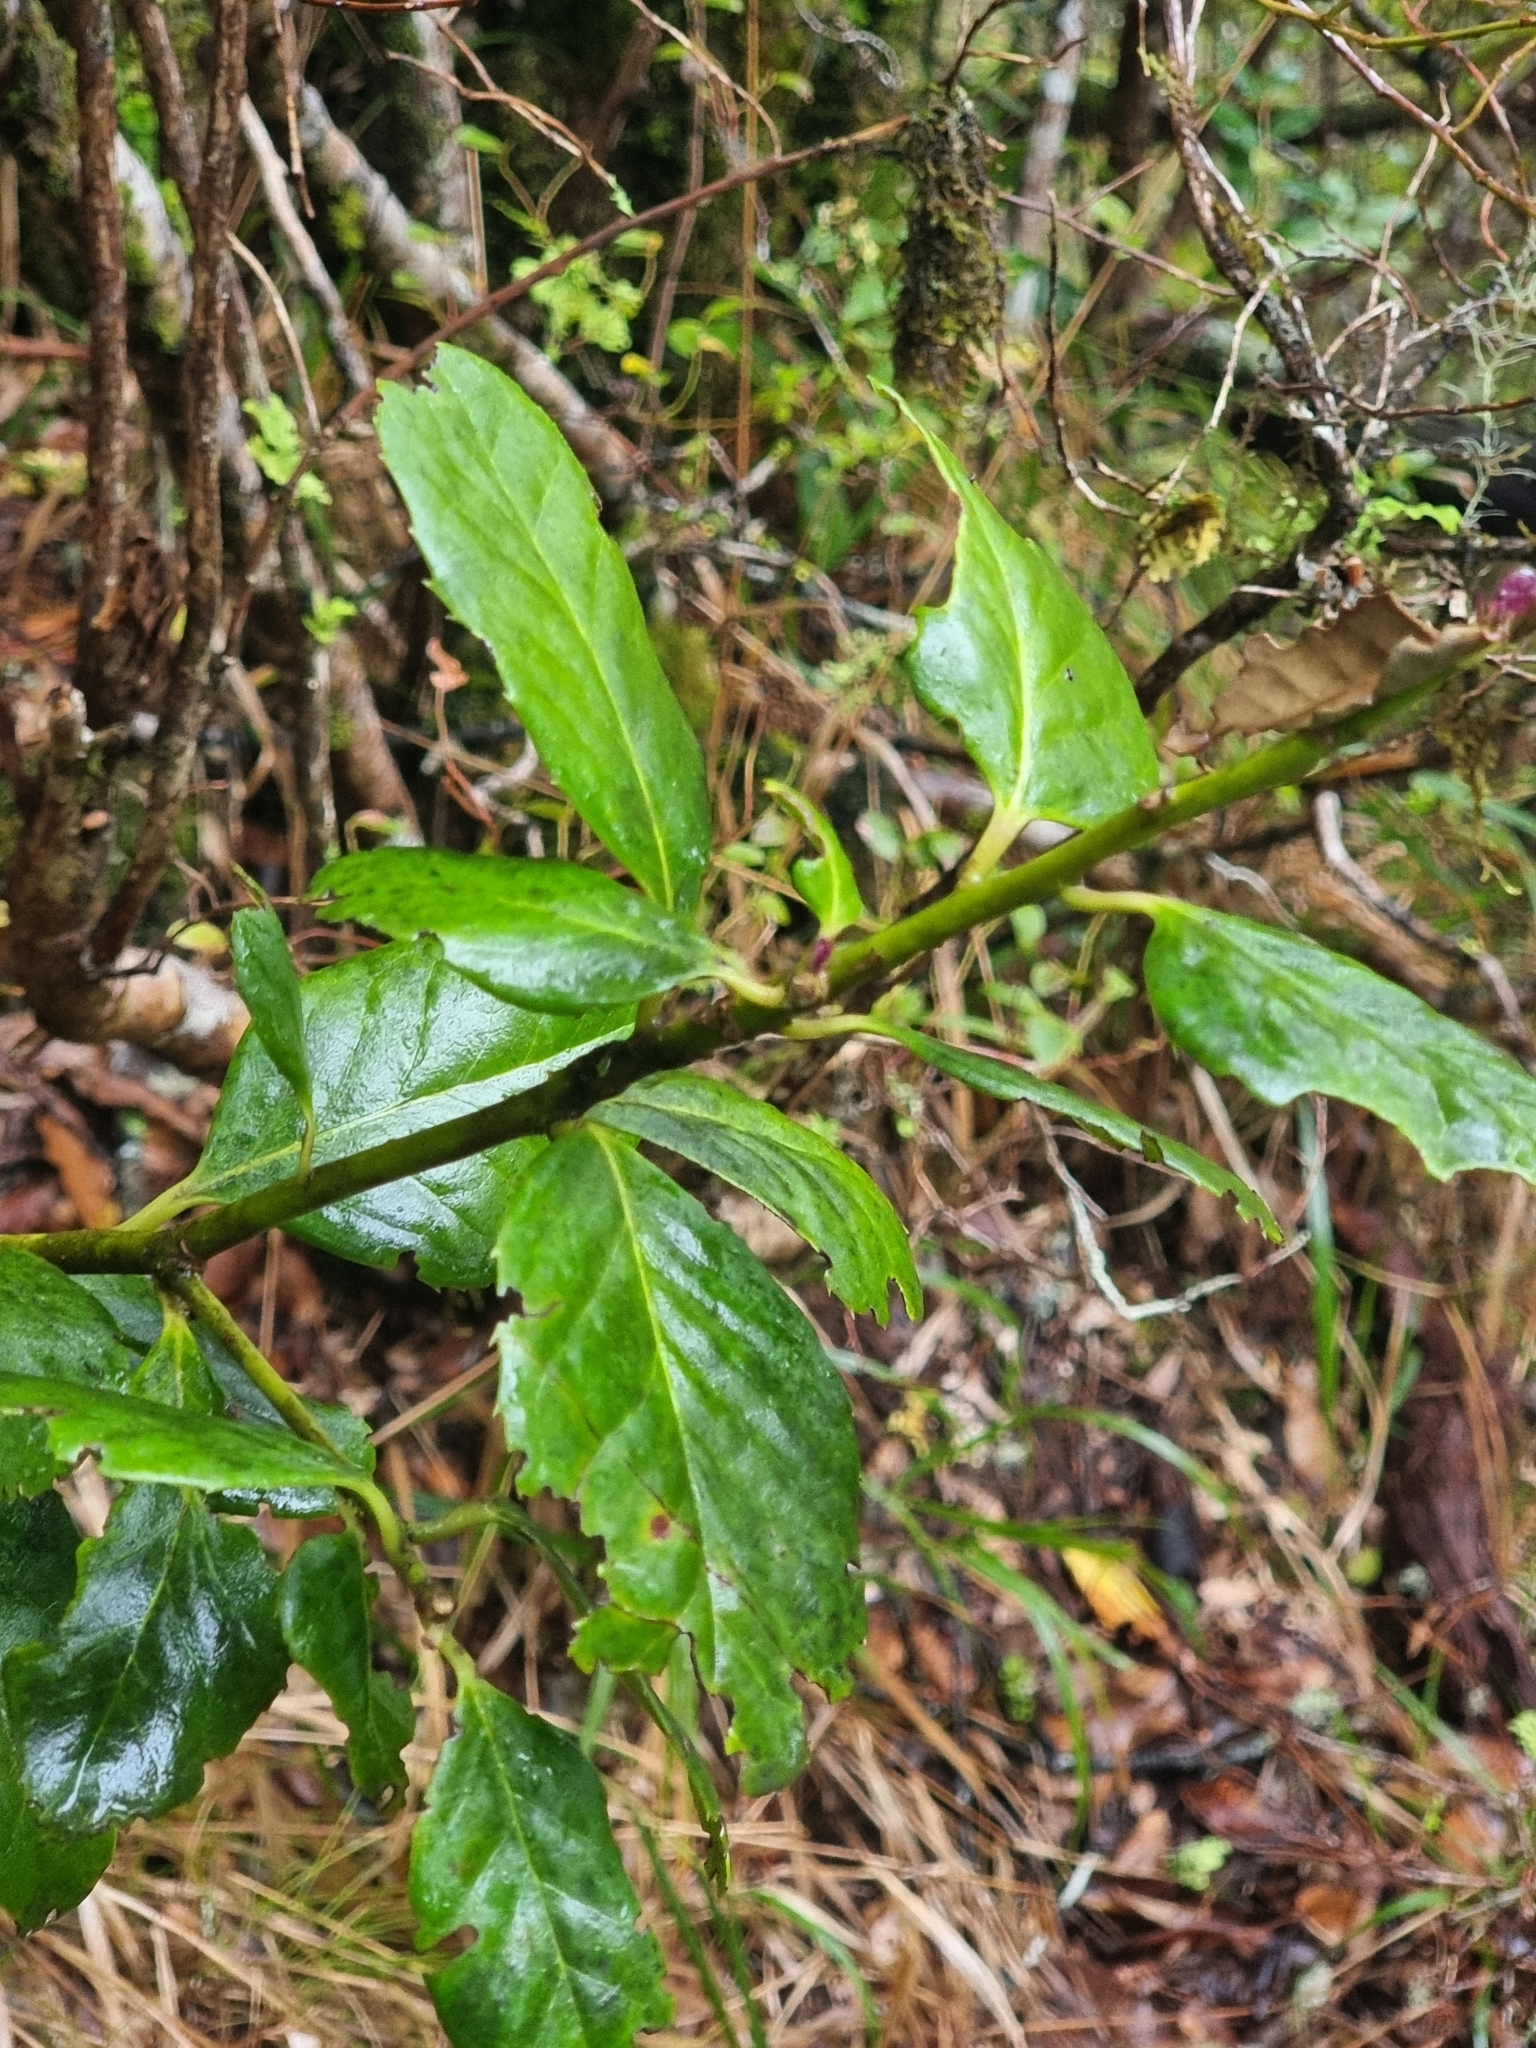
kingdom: Plantae
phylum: Tracheophyta
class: Magnoliopsida
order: Aquifoliales
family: Aquifoliaceae
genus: Ilex
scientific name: Ilex perado
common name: Madeira holly
